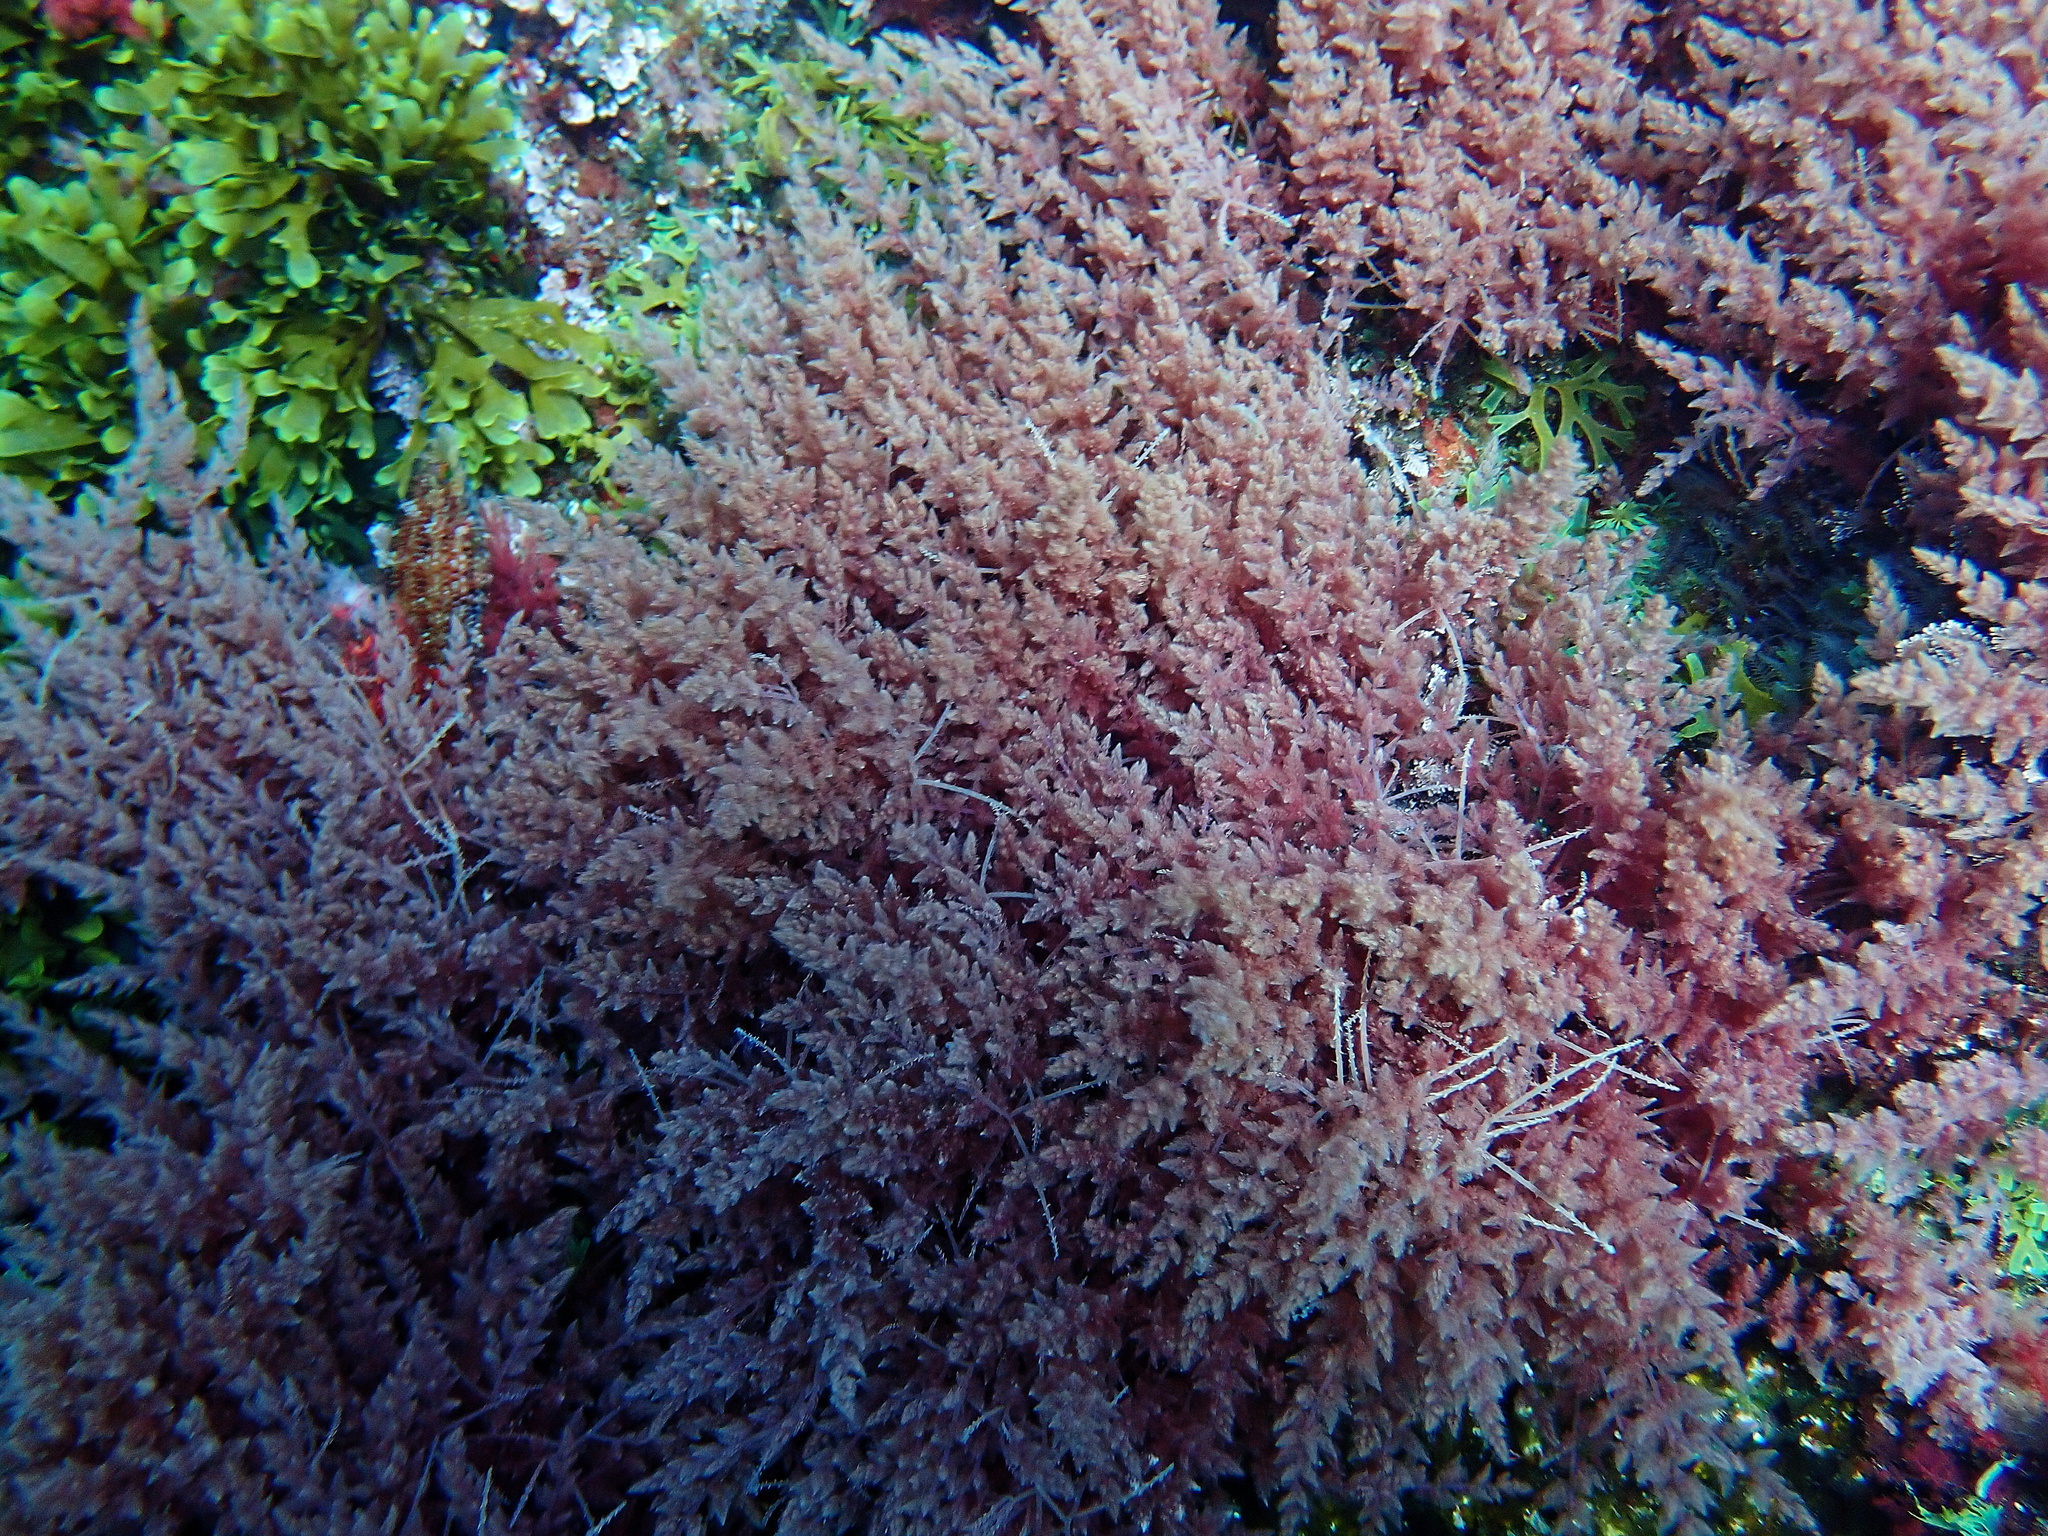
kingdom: Plantae
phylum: Rhodophyta
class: Florideophyceae
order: Bonnemaisoniales
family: Bonnemaisoniaceae
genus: Asparagopsis
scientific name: Asparagopsis armata
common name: Harpoon weed
